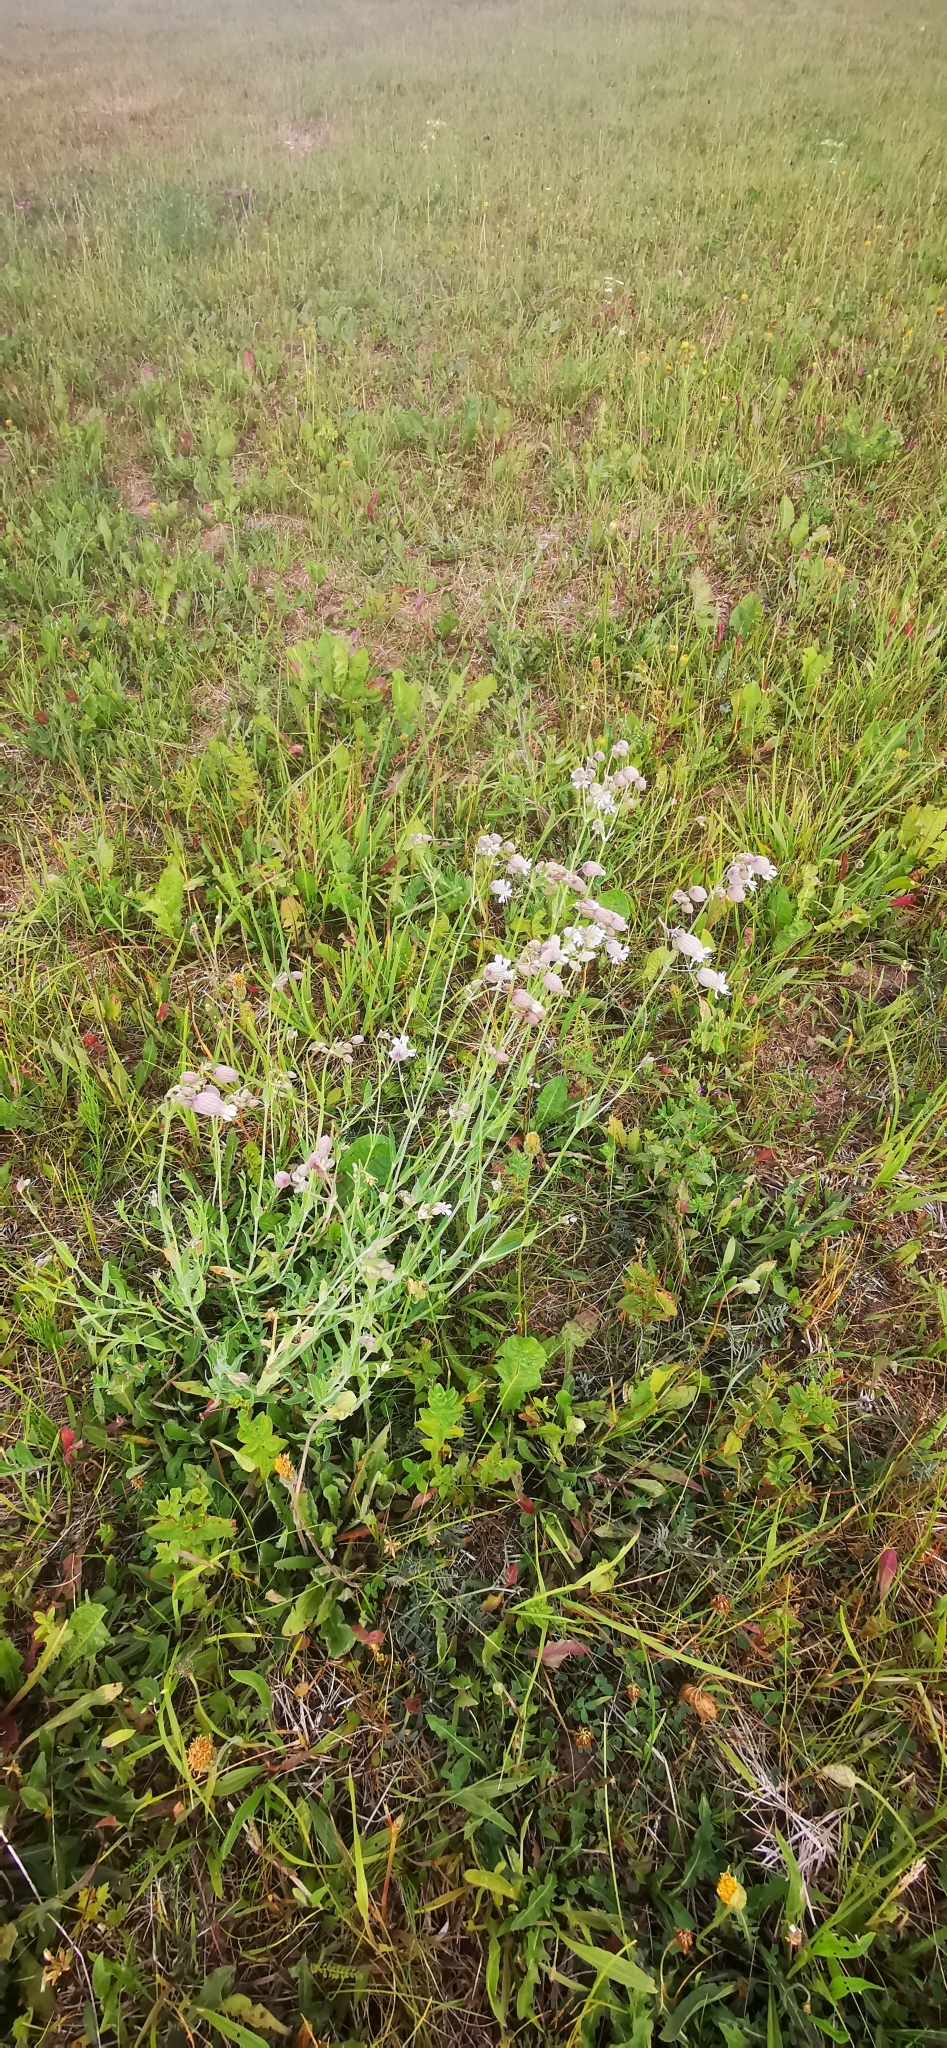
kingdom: Plantae
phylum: Tracheophyta
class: Magnoliopsida
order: Caryophyllales
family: Caryophyllaceae
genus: Silene
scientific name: Silene vulgaris
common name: Bladder campion
